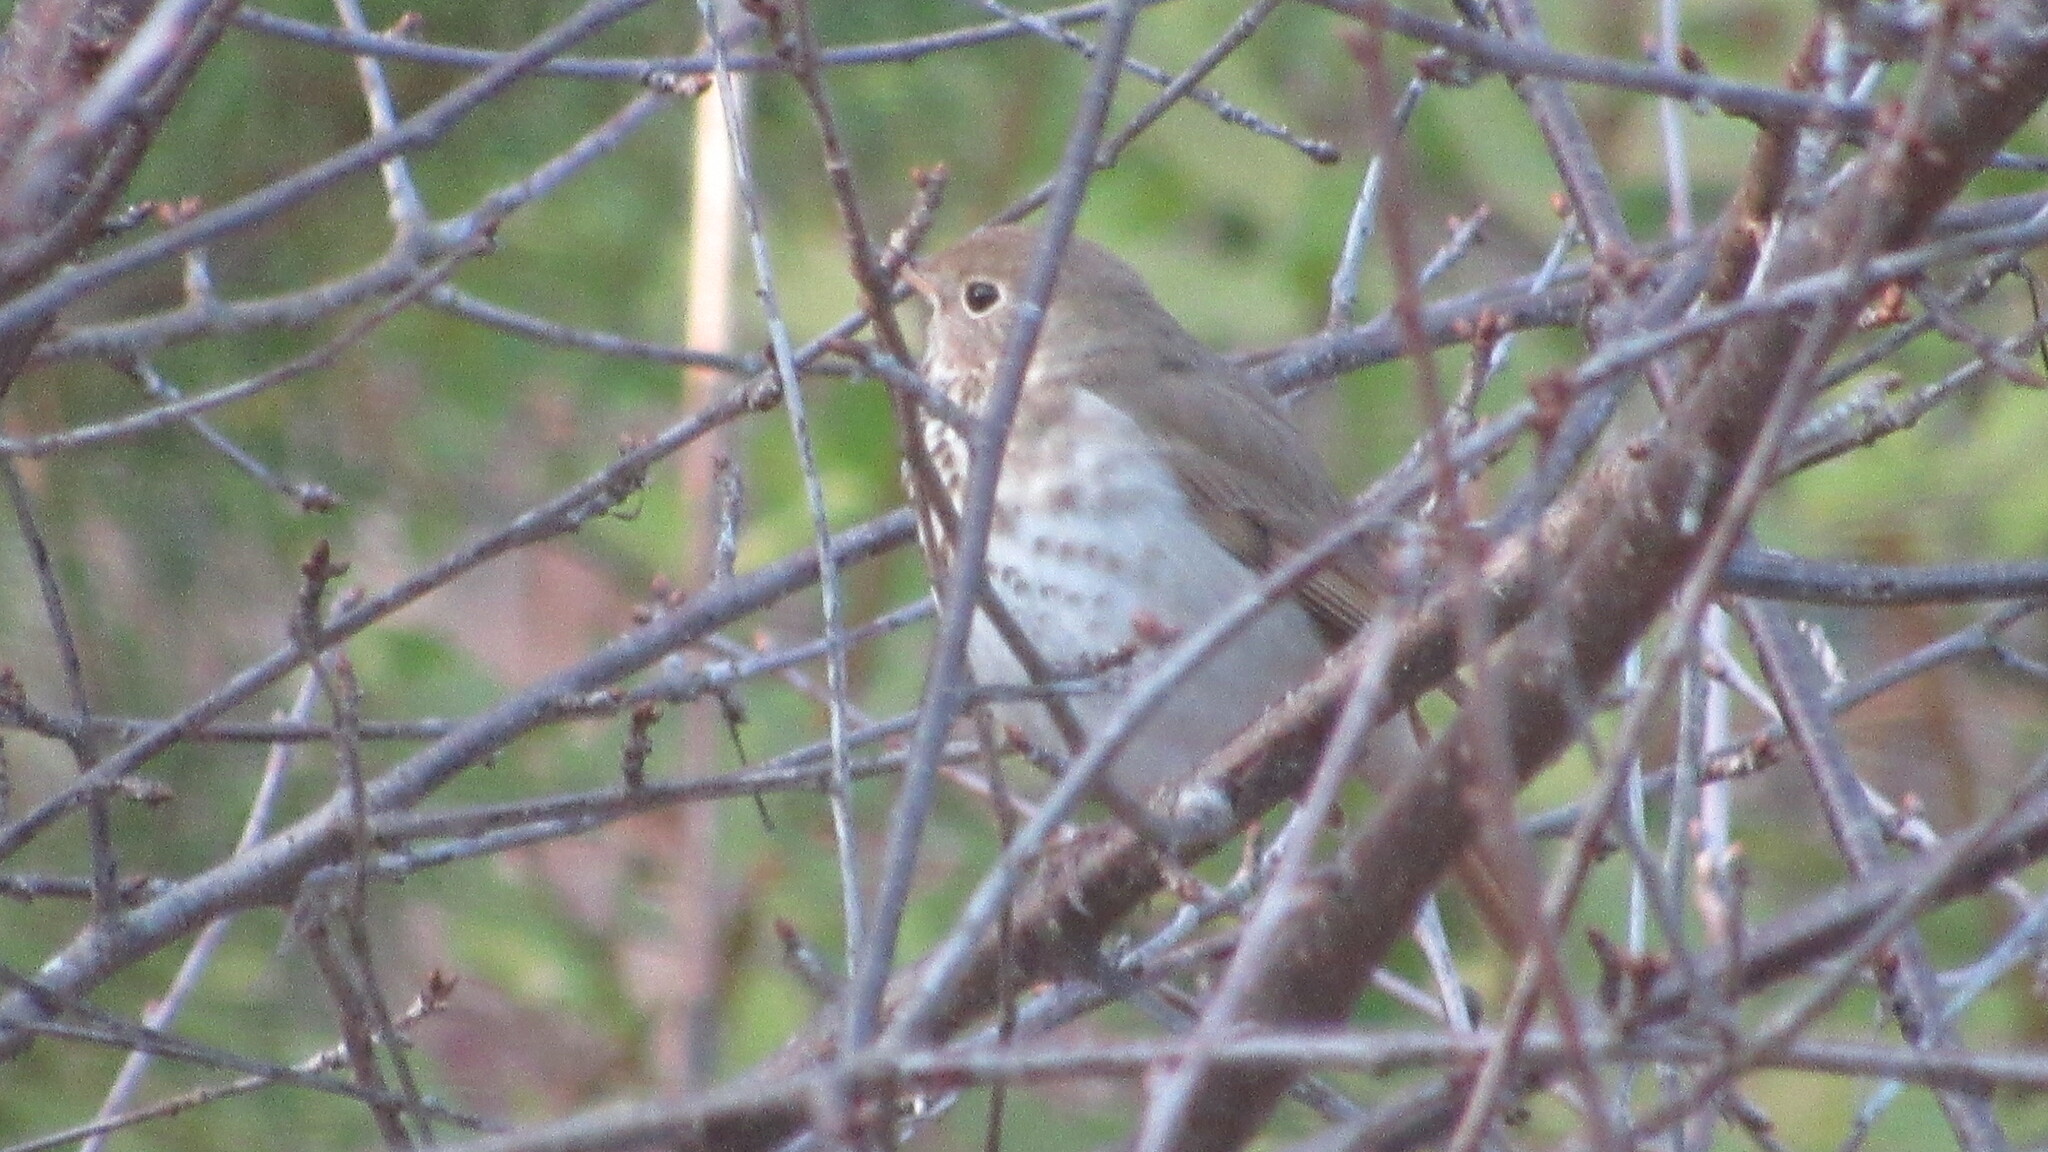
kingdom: Animalia
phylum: Chordata
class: Aves
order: Passeriformes
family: Turdidae
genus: Catharus
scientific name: Catharus guttatus
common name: Hermit thrush
